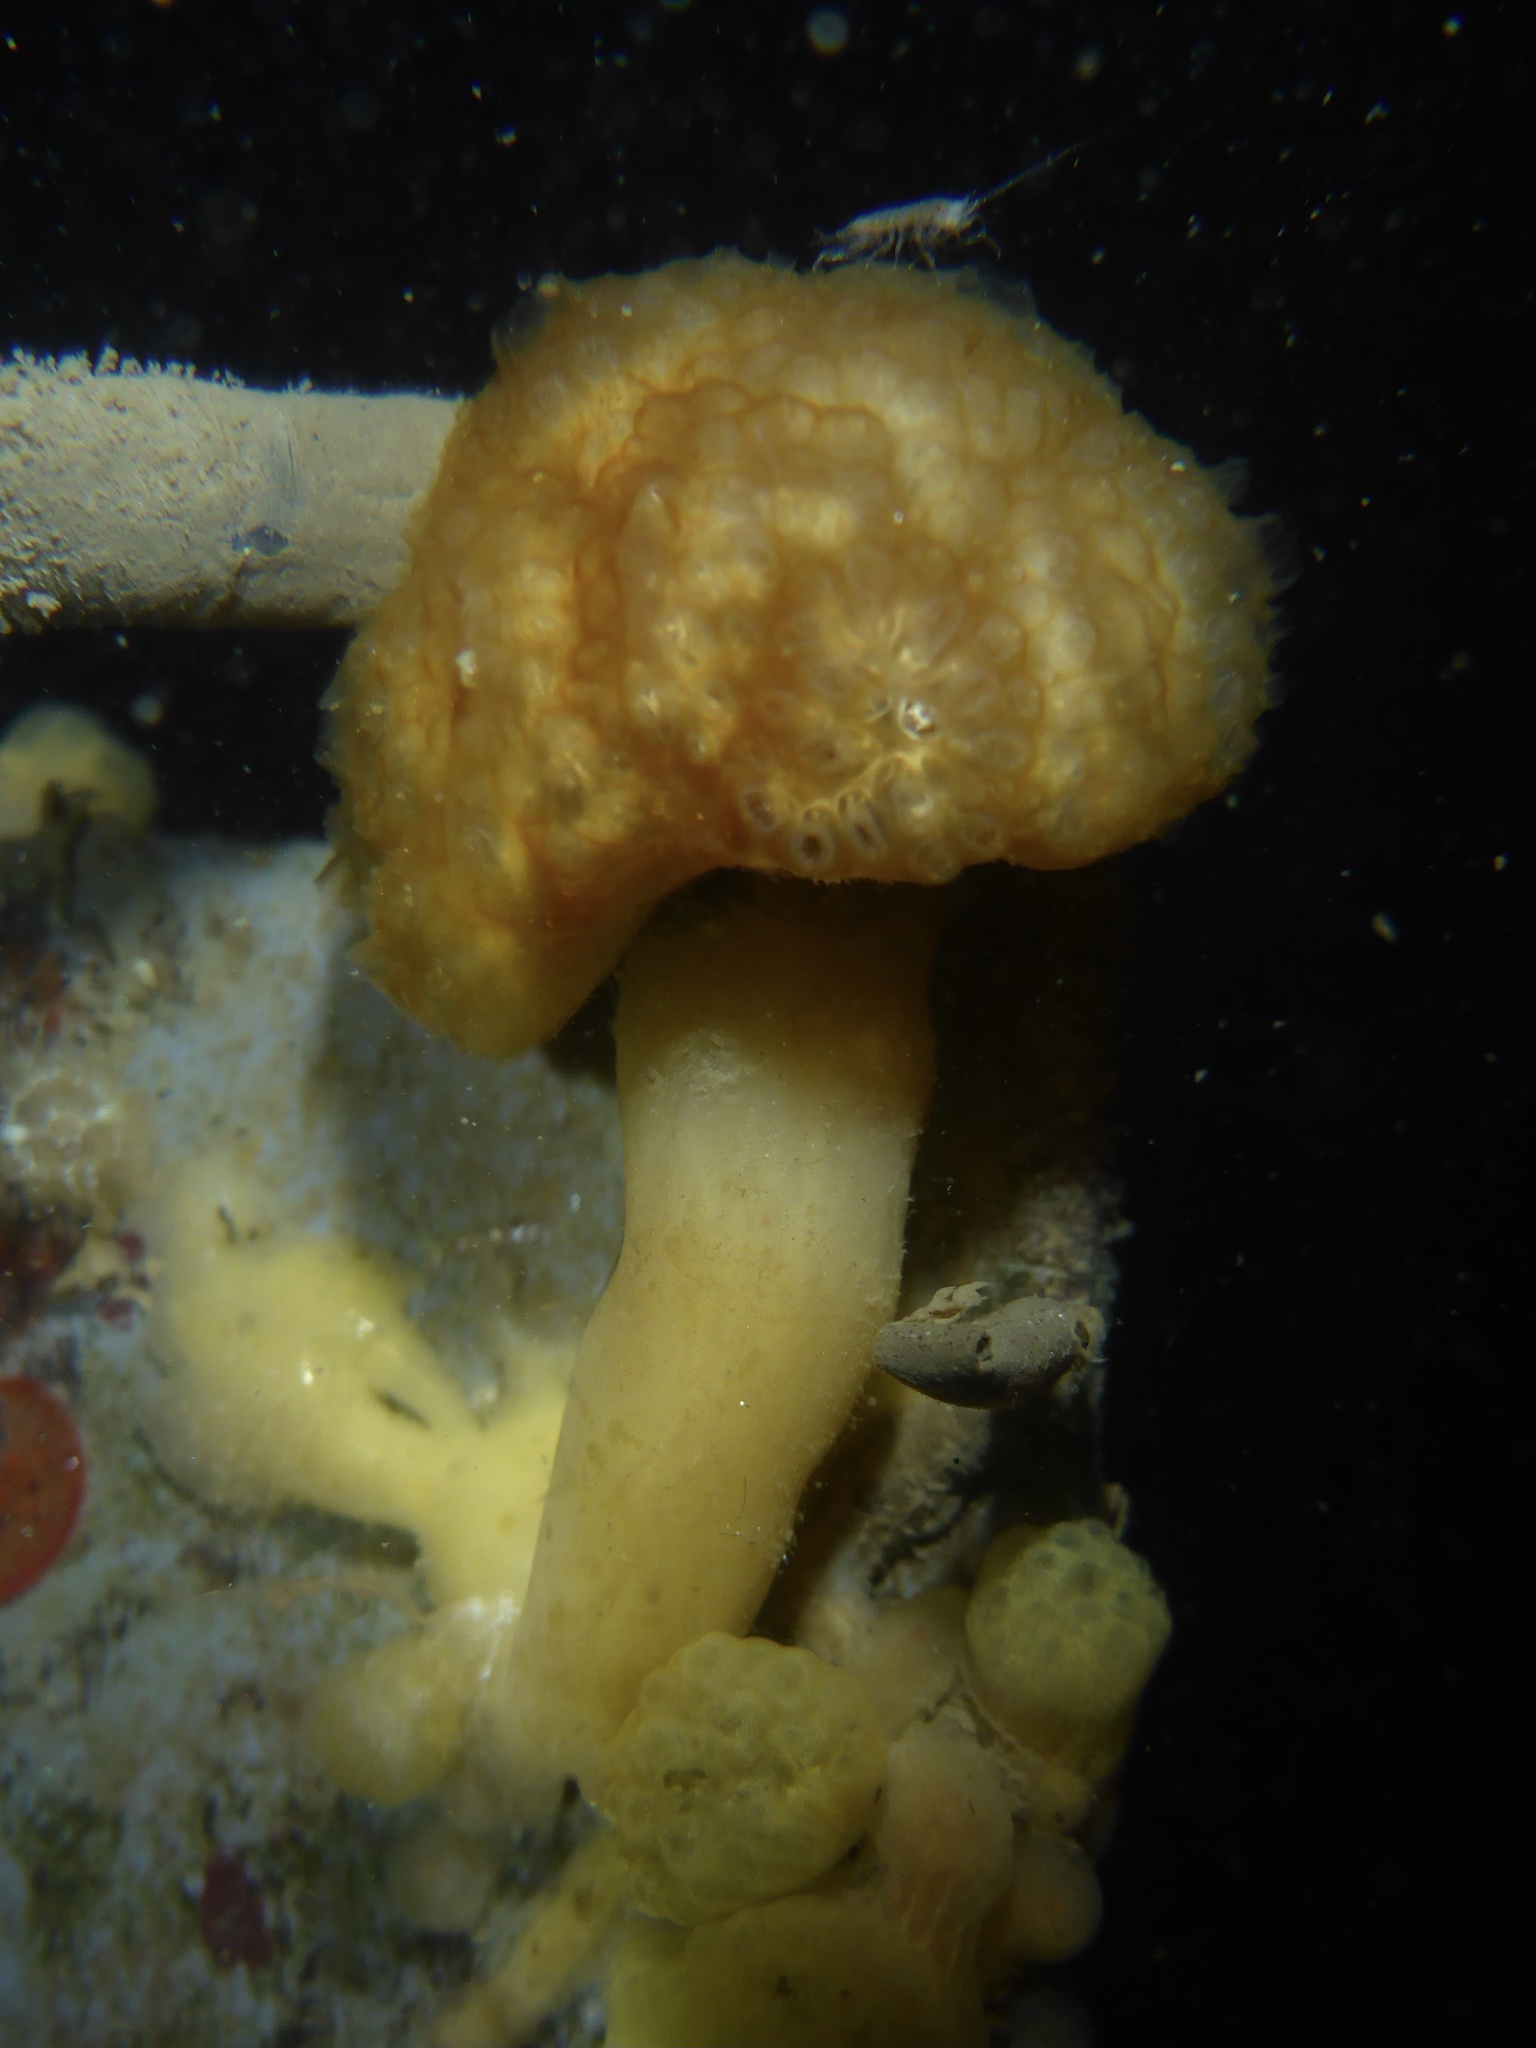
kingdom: Animalia
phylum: Chordata
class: Ascidiacea
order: Aplousobranchia
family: Holozoidae
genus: Distaplia
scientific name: Distaplia occidentalis
